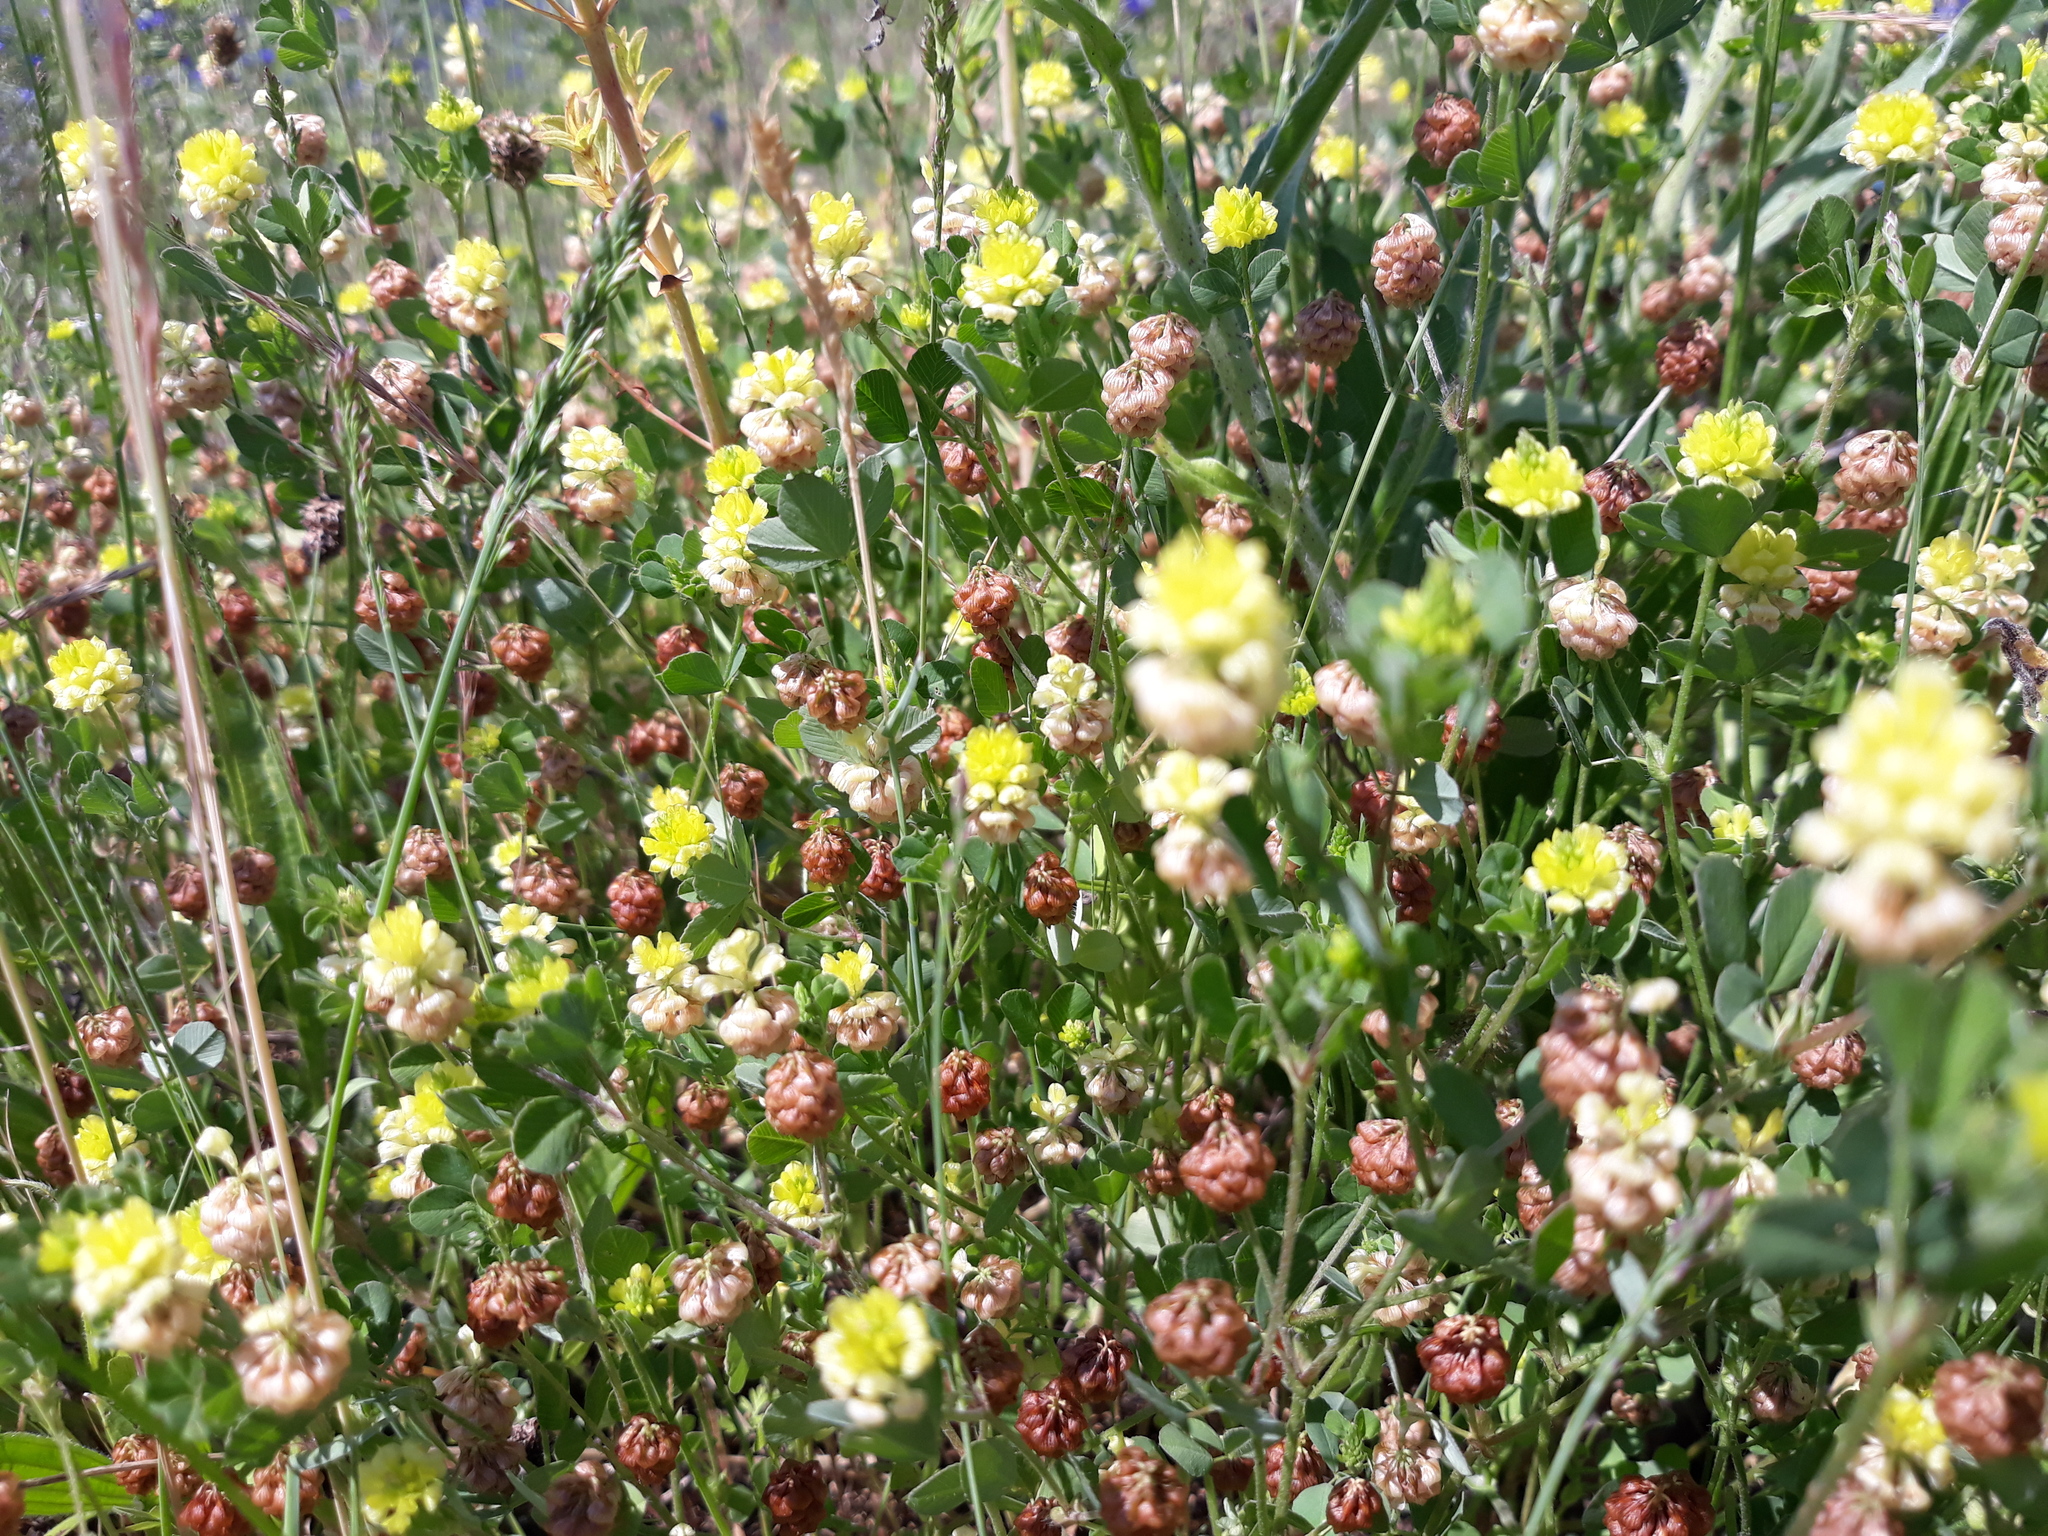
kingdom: Plantae
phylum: Tracheophyta
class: Magnoliopsida
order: Fabales
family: Fabaceae
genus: Trifolium
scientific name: Trifolium campestre
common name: Field clover
